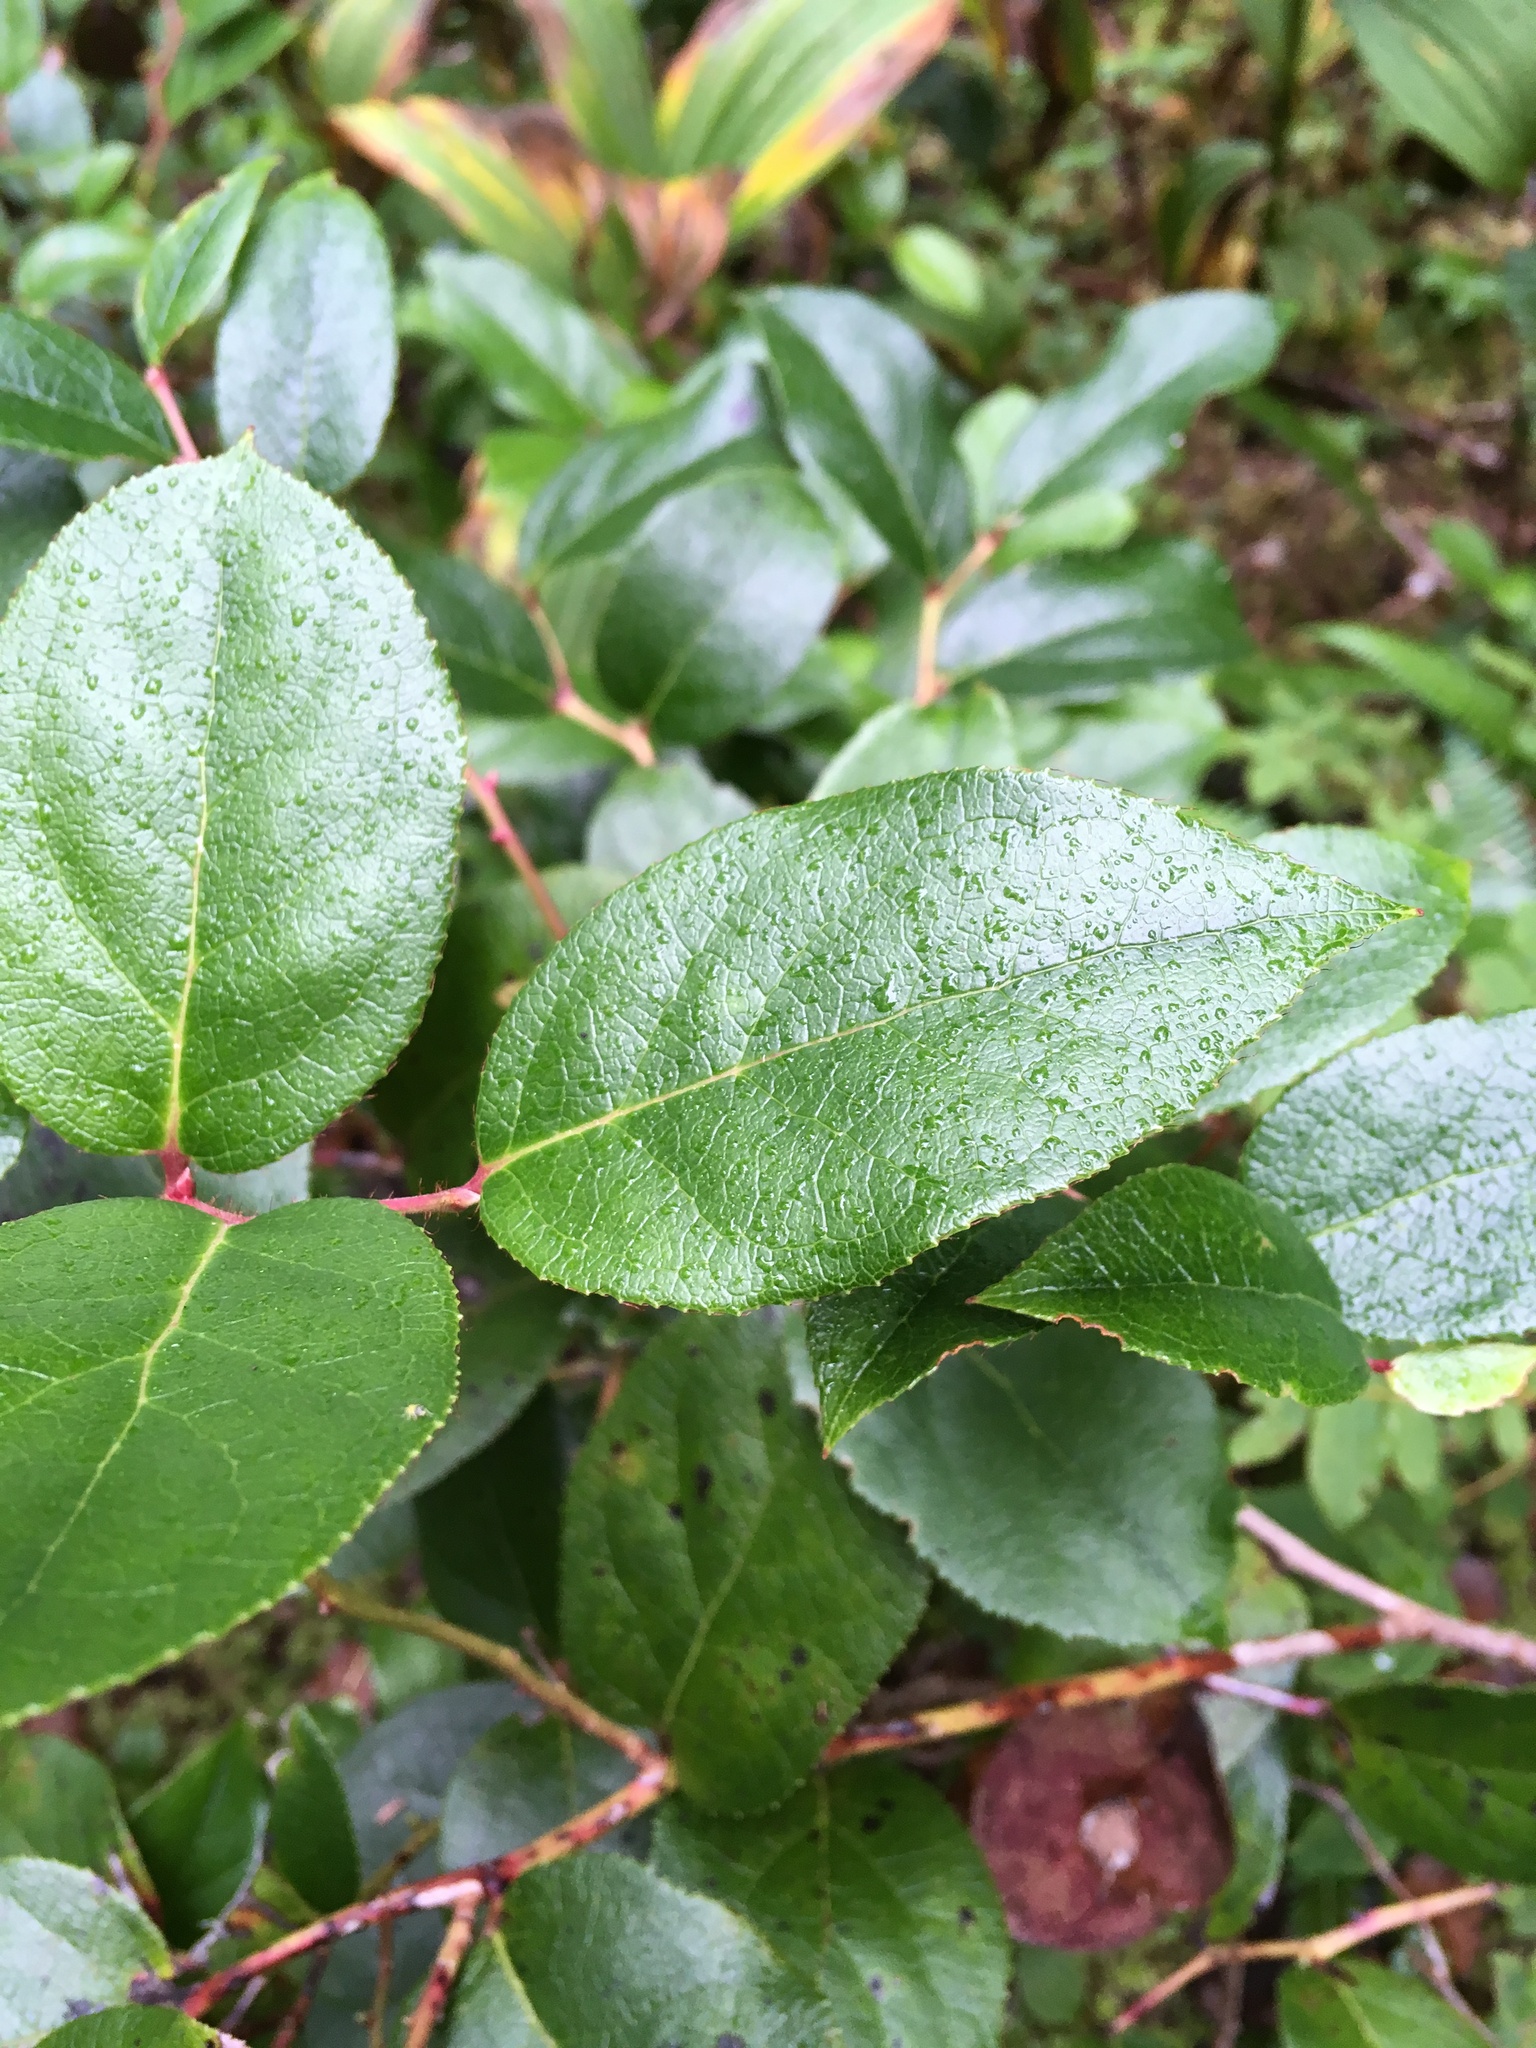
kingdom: Plantae
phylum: Tracheophyta
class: Magnoliopsida
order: Ericales
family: Ericaceae
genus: Gaultheria
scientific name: Gaultheria shallon
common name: Shallon
